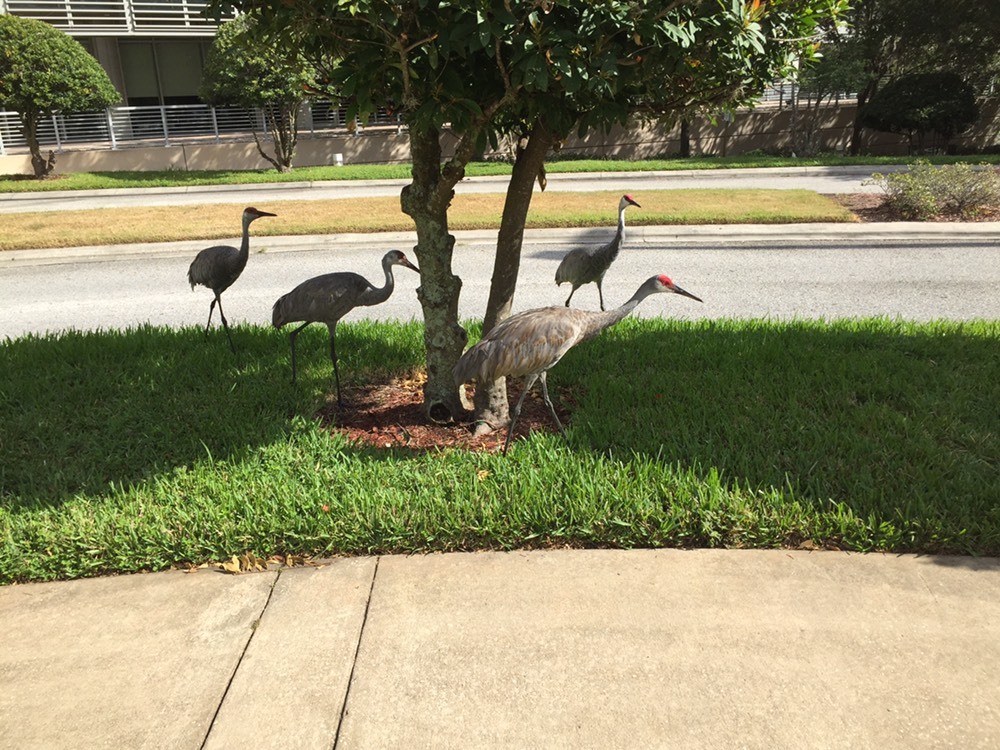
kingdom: Animalia
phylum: Chordata
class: Aves
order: Gruiformes
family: Gruidae
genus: Grus
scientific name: Grus canadensis
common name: Sandhill crane
